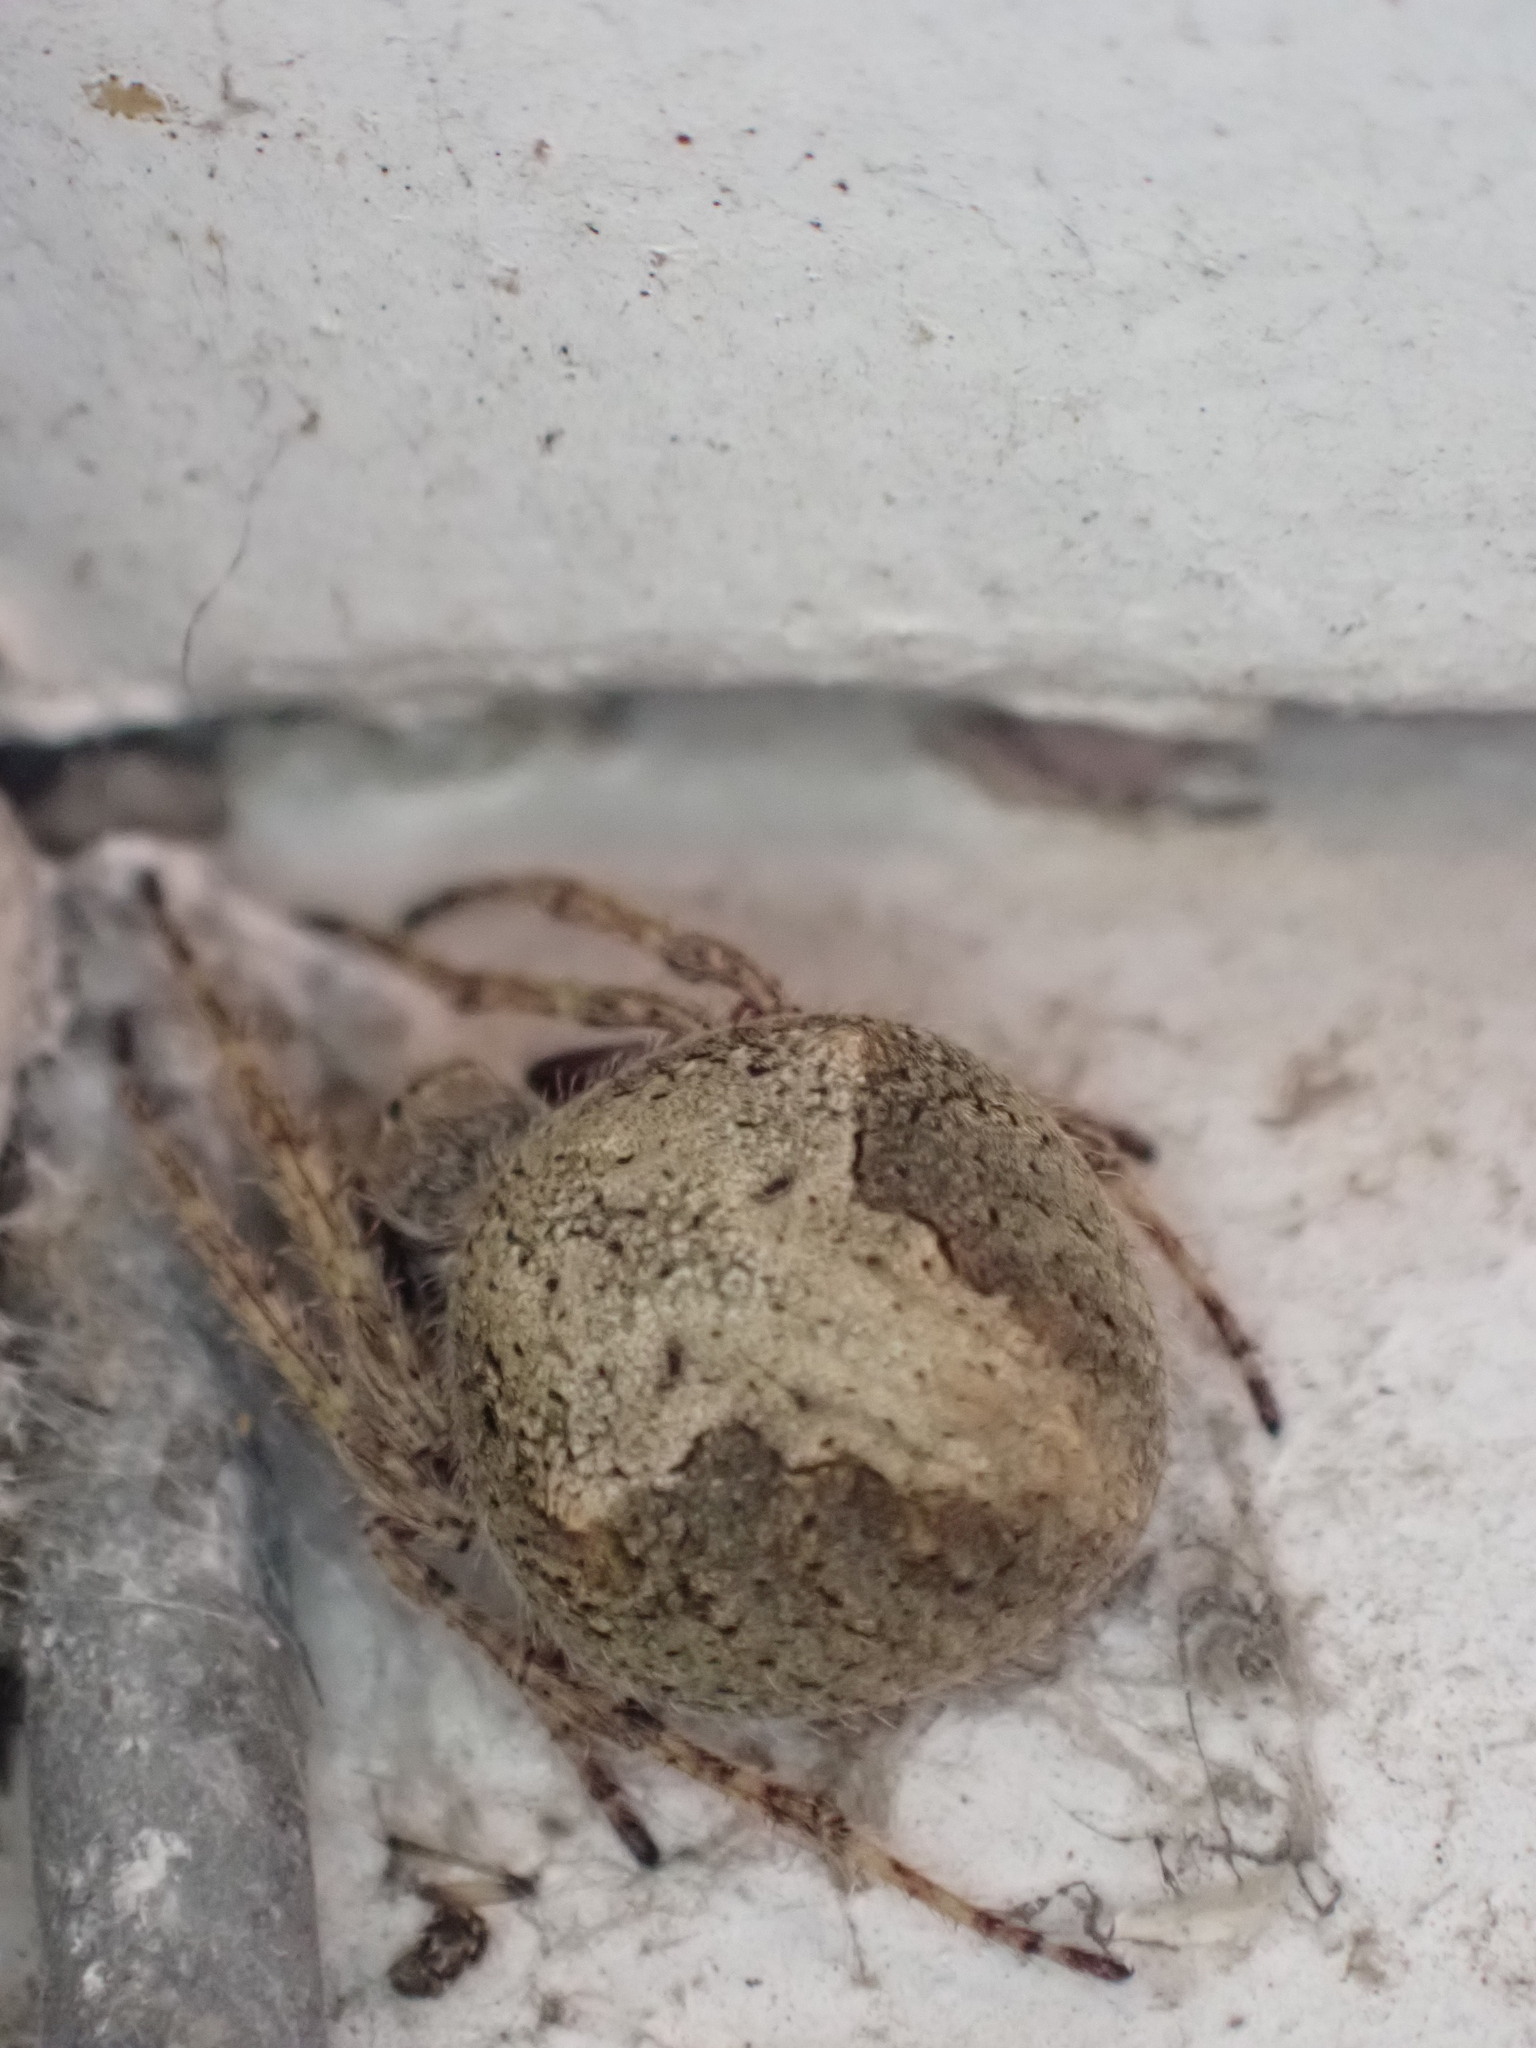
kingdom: Animalia
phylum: Arthropoda
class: Arachnida
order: Araneae
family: Araneidae
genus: Eriophora
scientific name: Eriophora pustulosa
